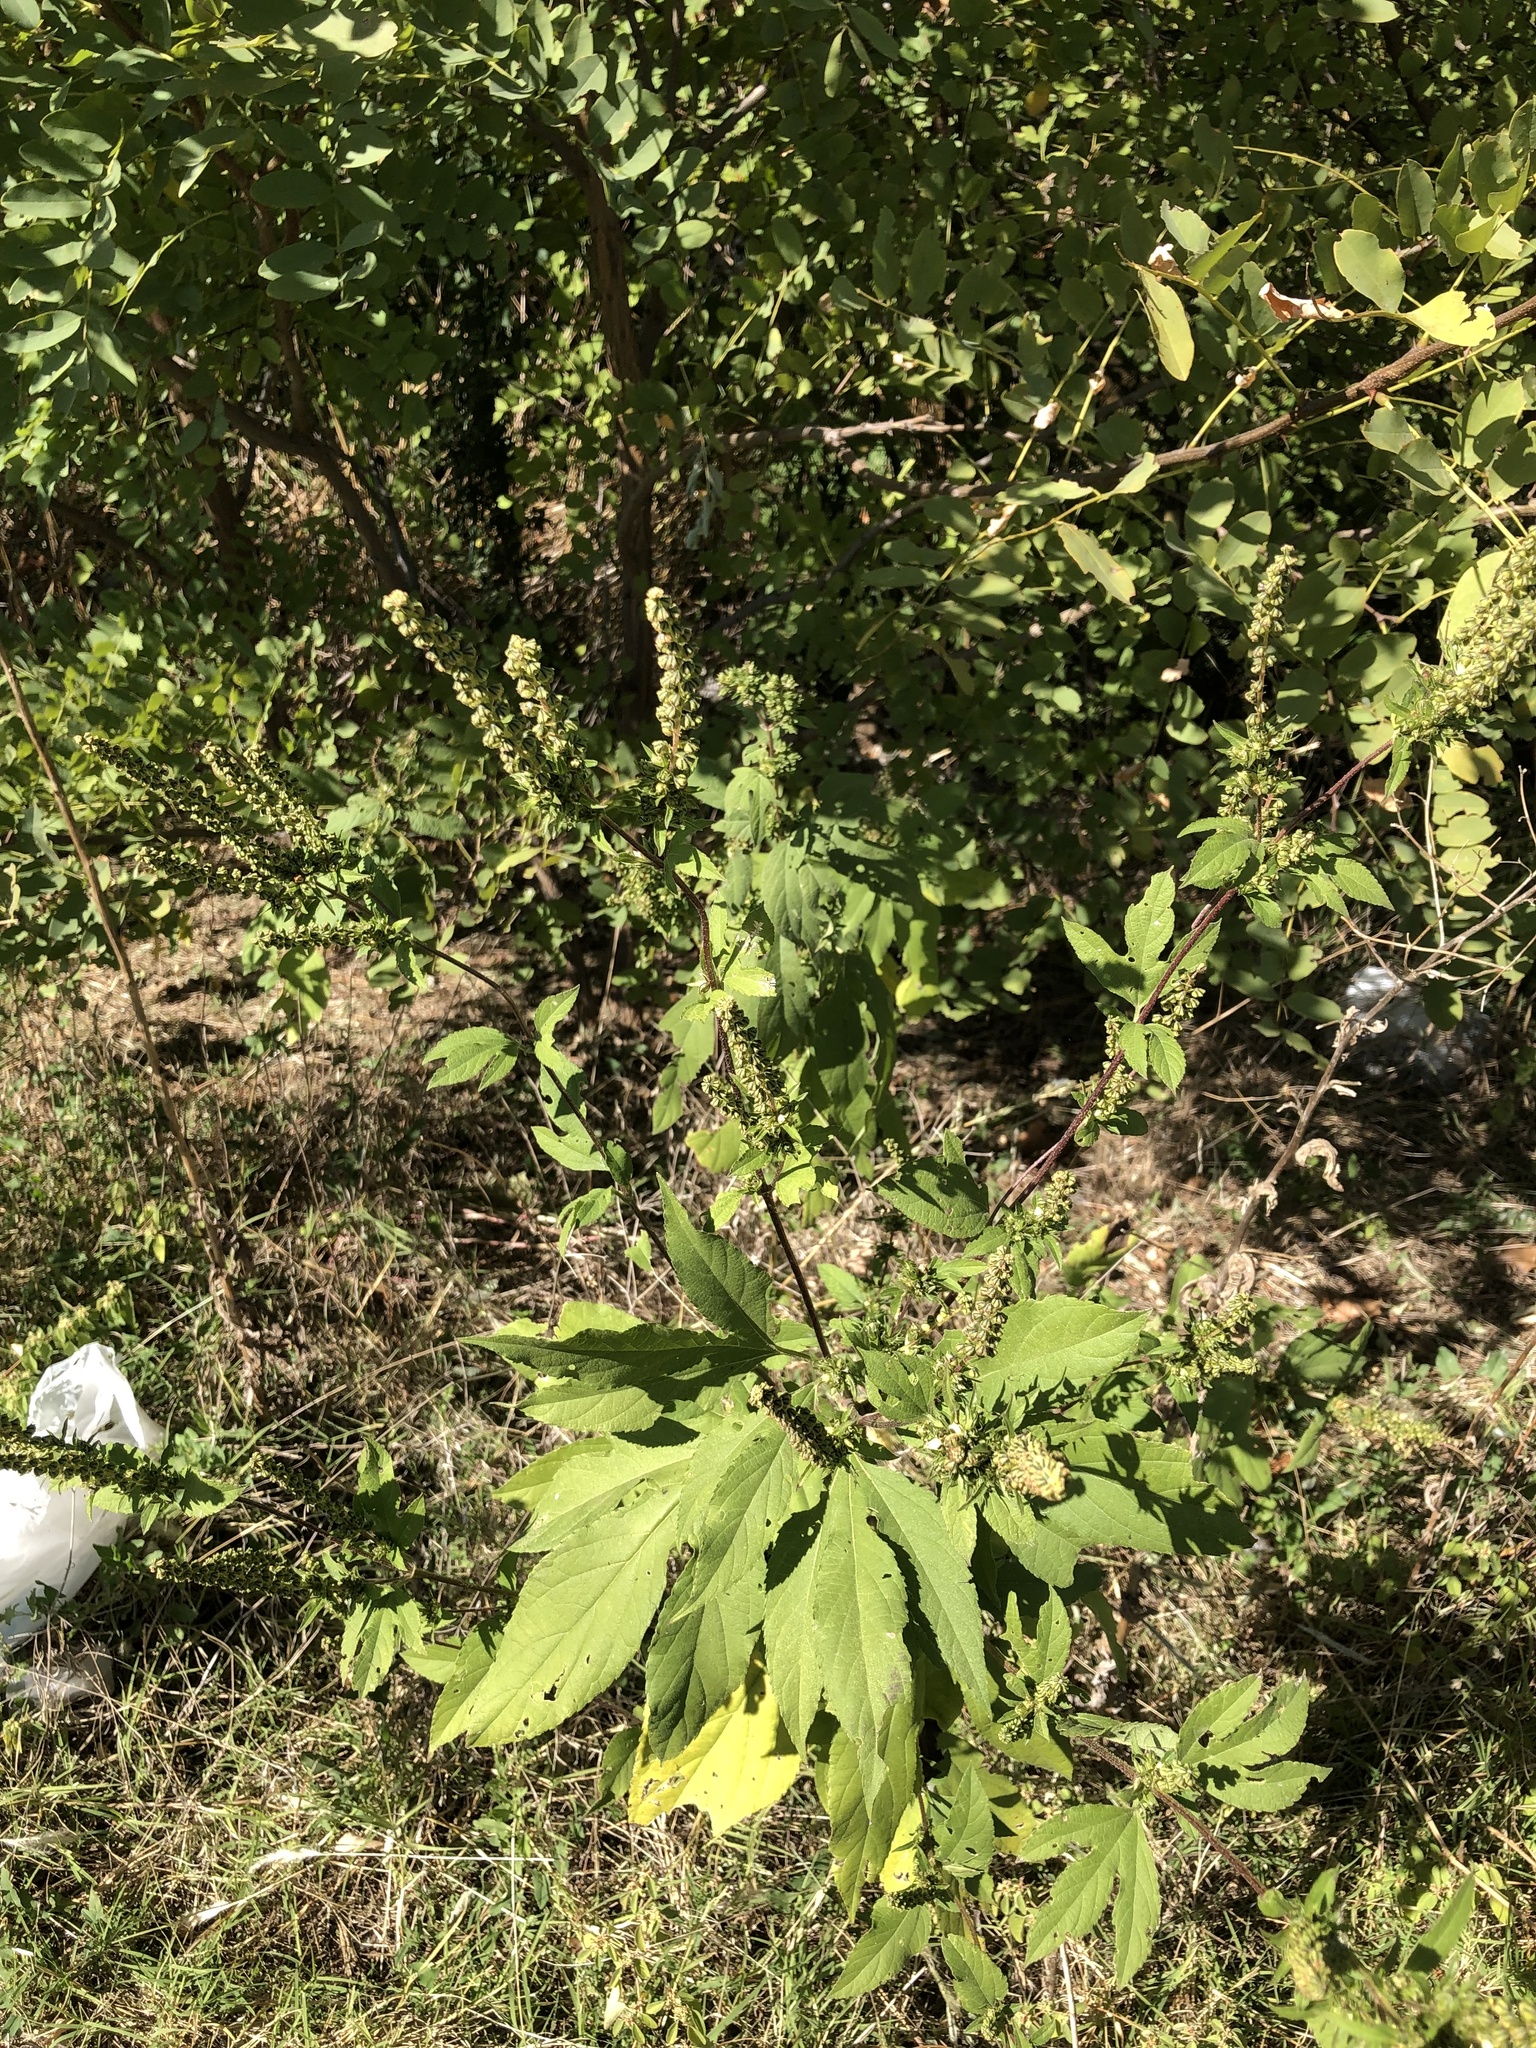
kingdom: Plantae
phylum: Tracheophyta
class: Magnoliopsida
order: Asterales
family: Asteraceae
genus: Ambrosia
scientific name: Ambrosia trifida
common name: Giant ragweed
